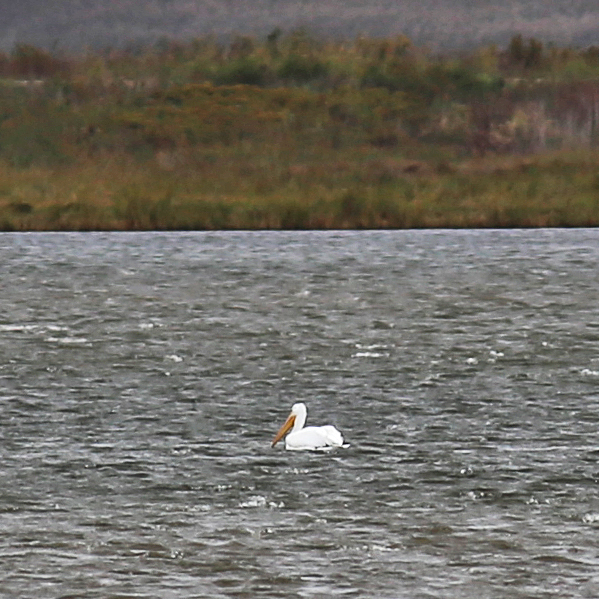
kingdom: Animalia
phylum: Chordata
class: Aves
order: Pelecaniformes
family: Pelecanidae
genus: Pelecanus
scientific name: Pelecanus erythrorhynchos
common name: American white pelican
